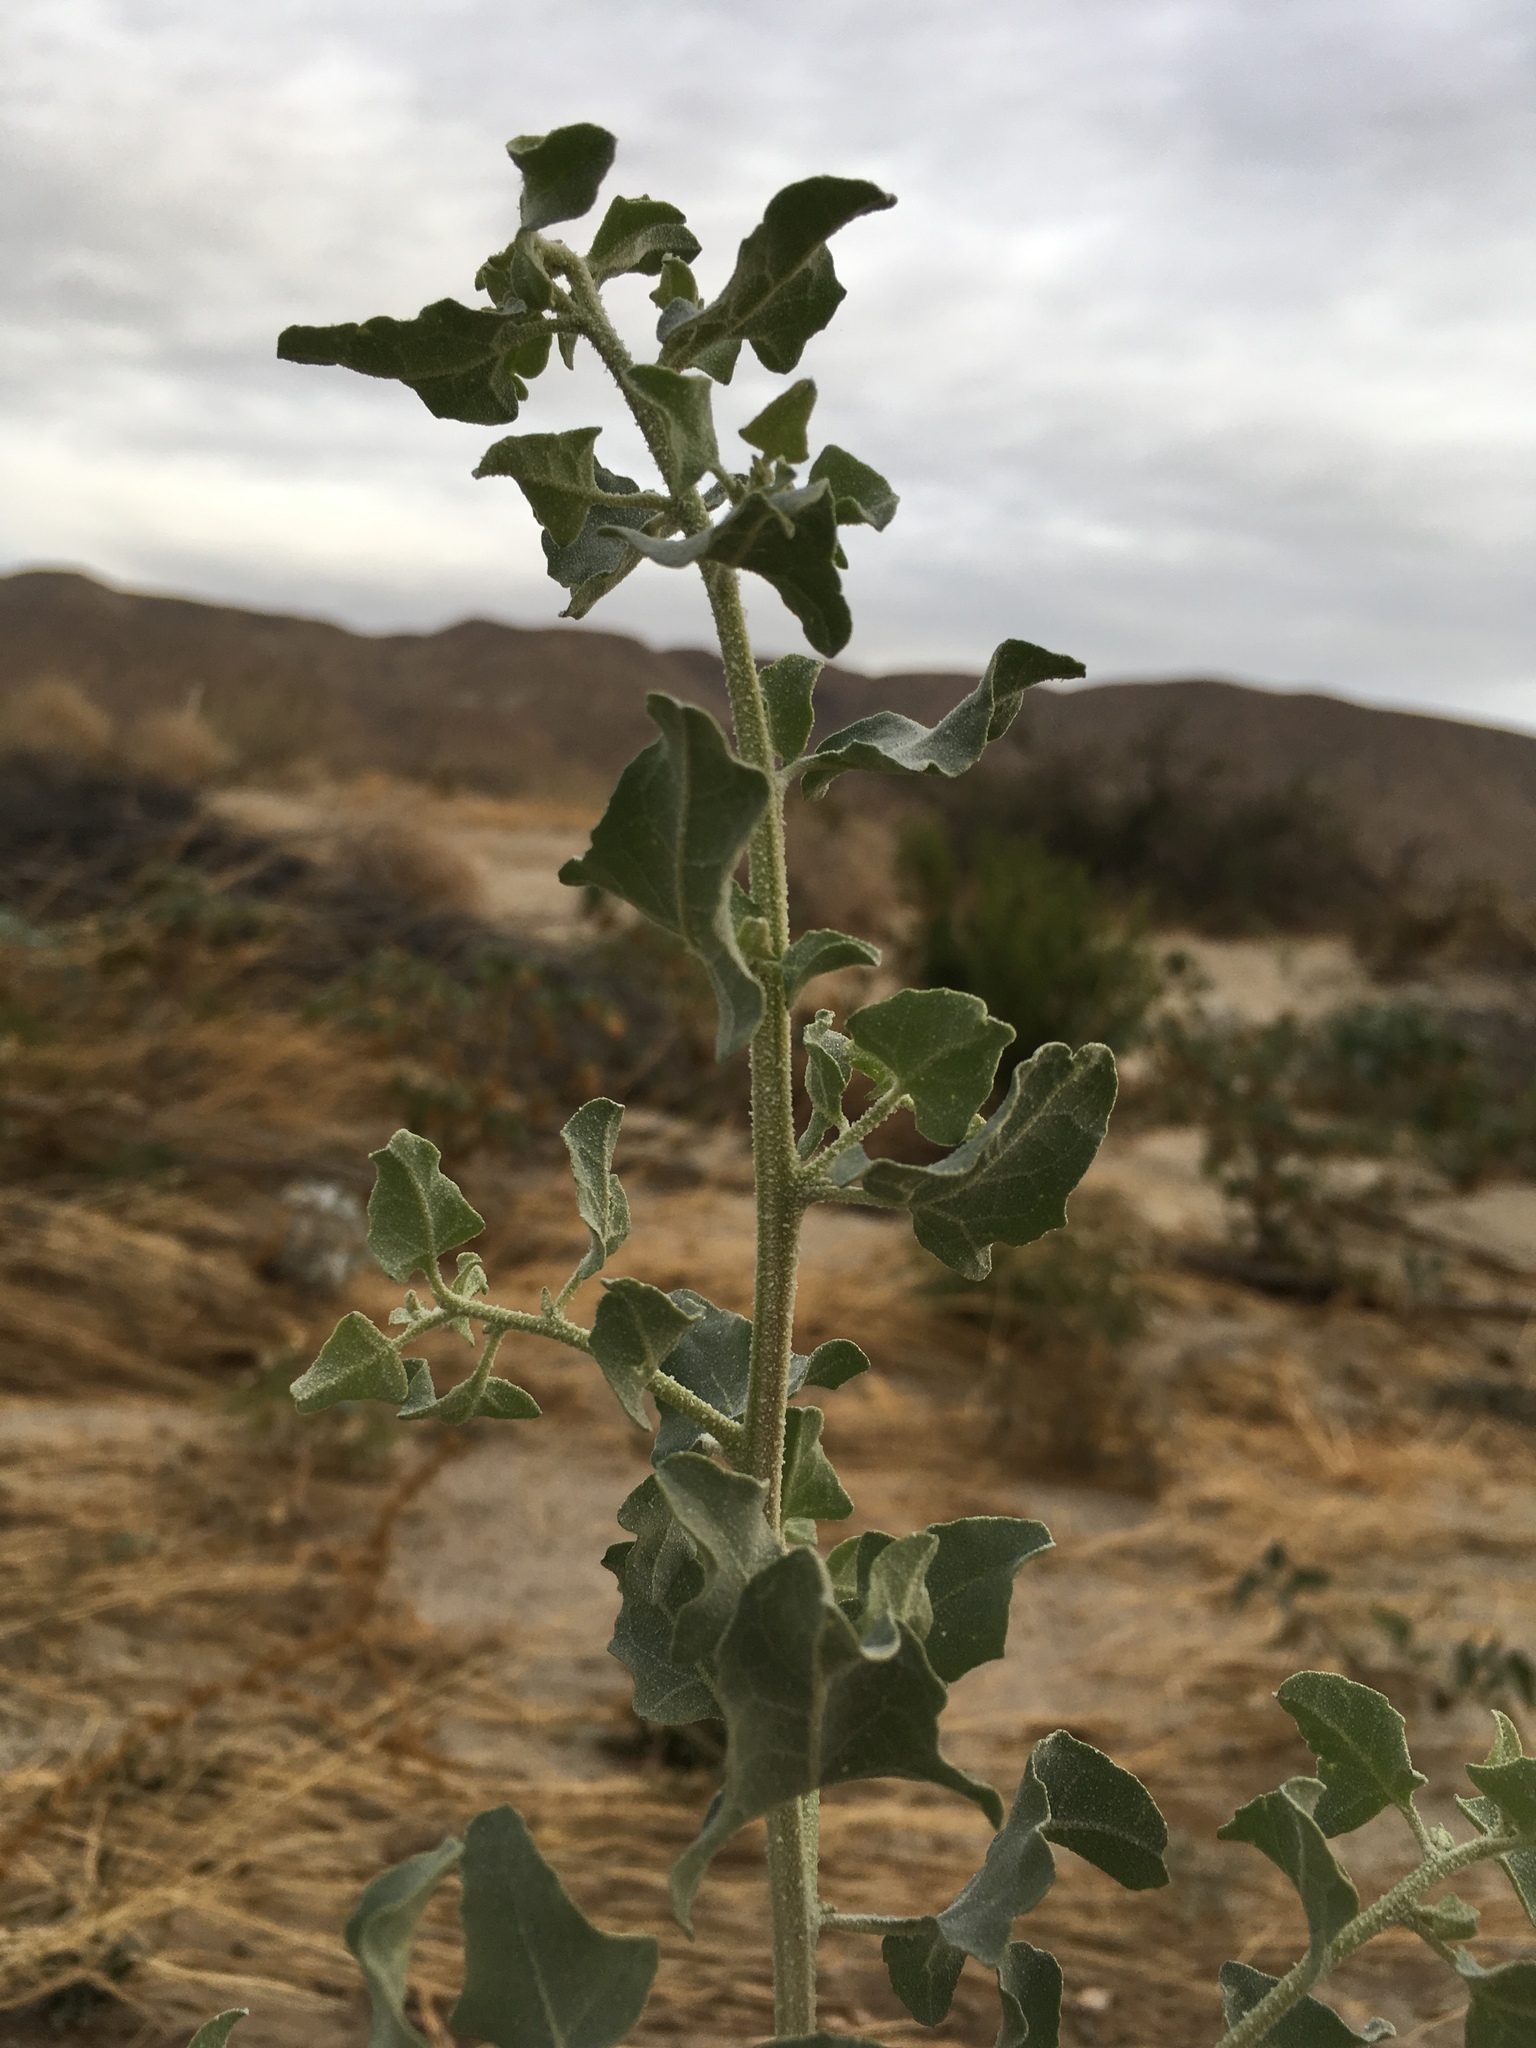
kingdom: Plantae
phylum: Tracheophyta
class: Magnoliopsida
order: Caryophyllales
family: Amaranthaceae
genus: Atriplex
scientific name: Atriplex lentiformis
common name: Big saltbush
